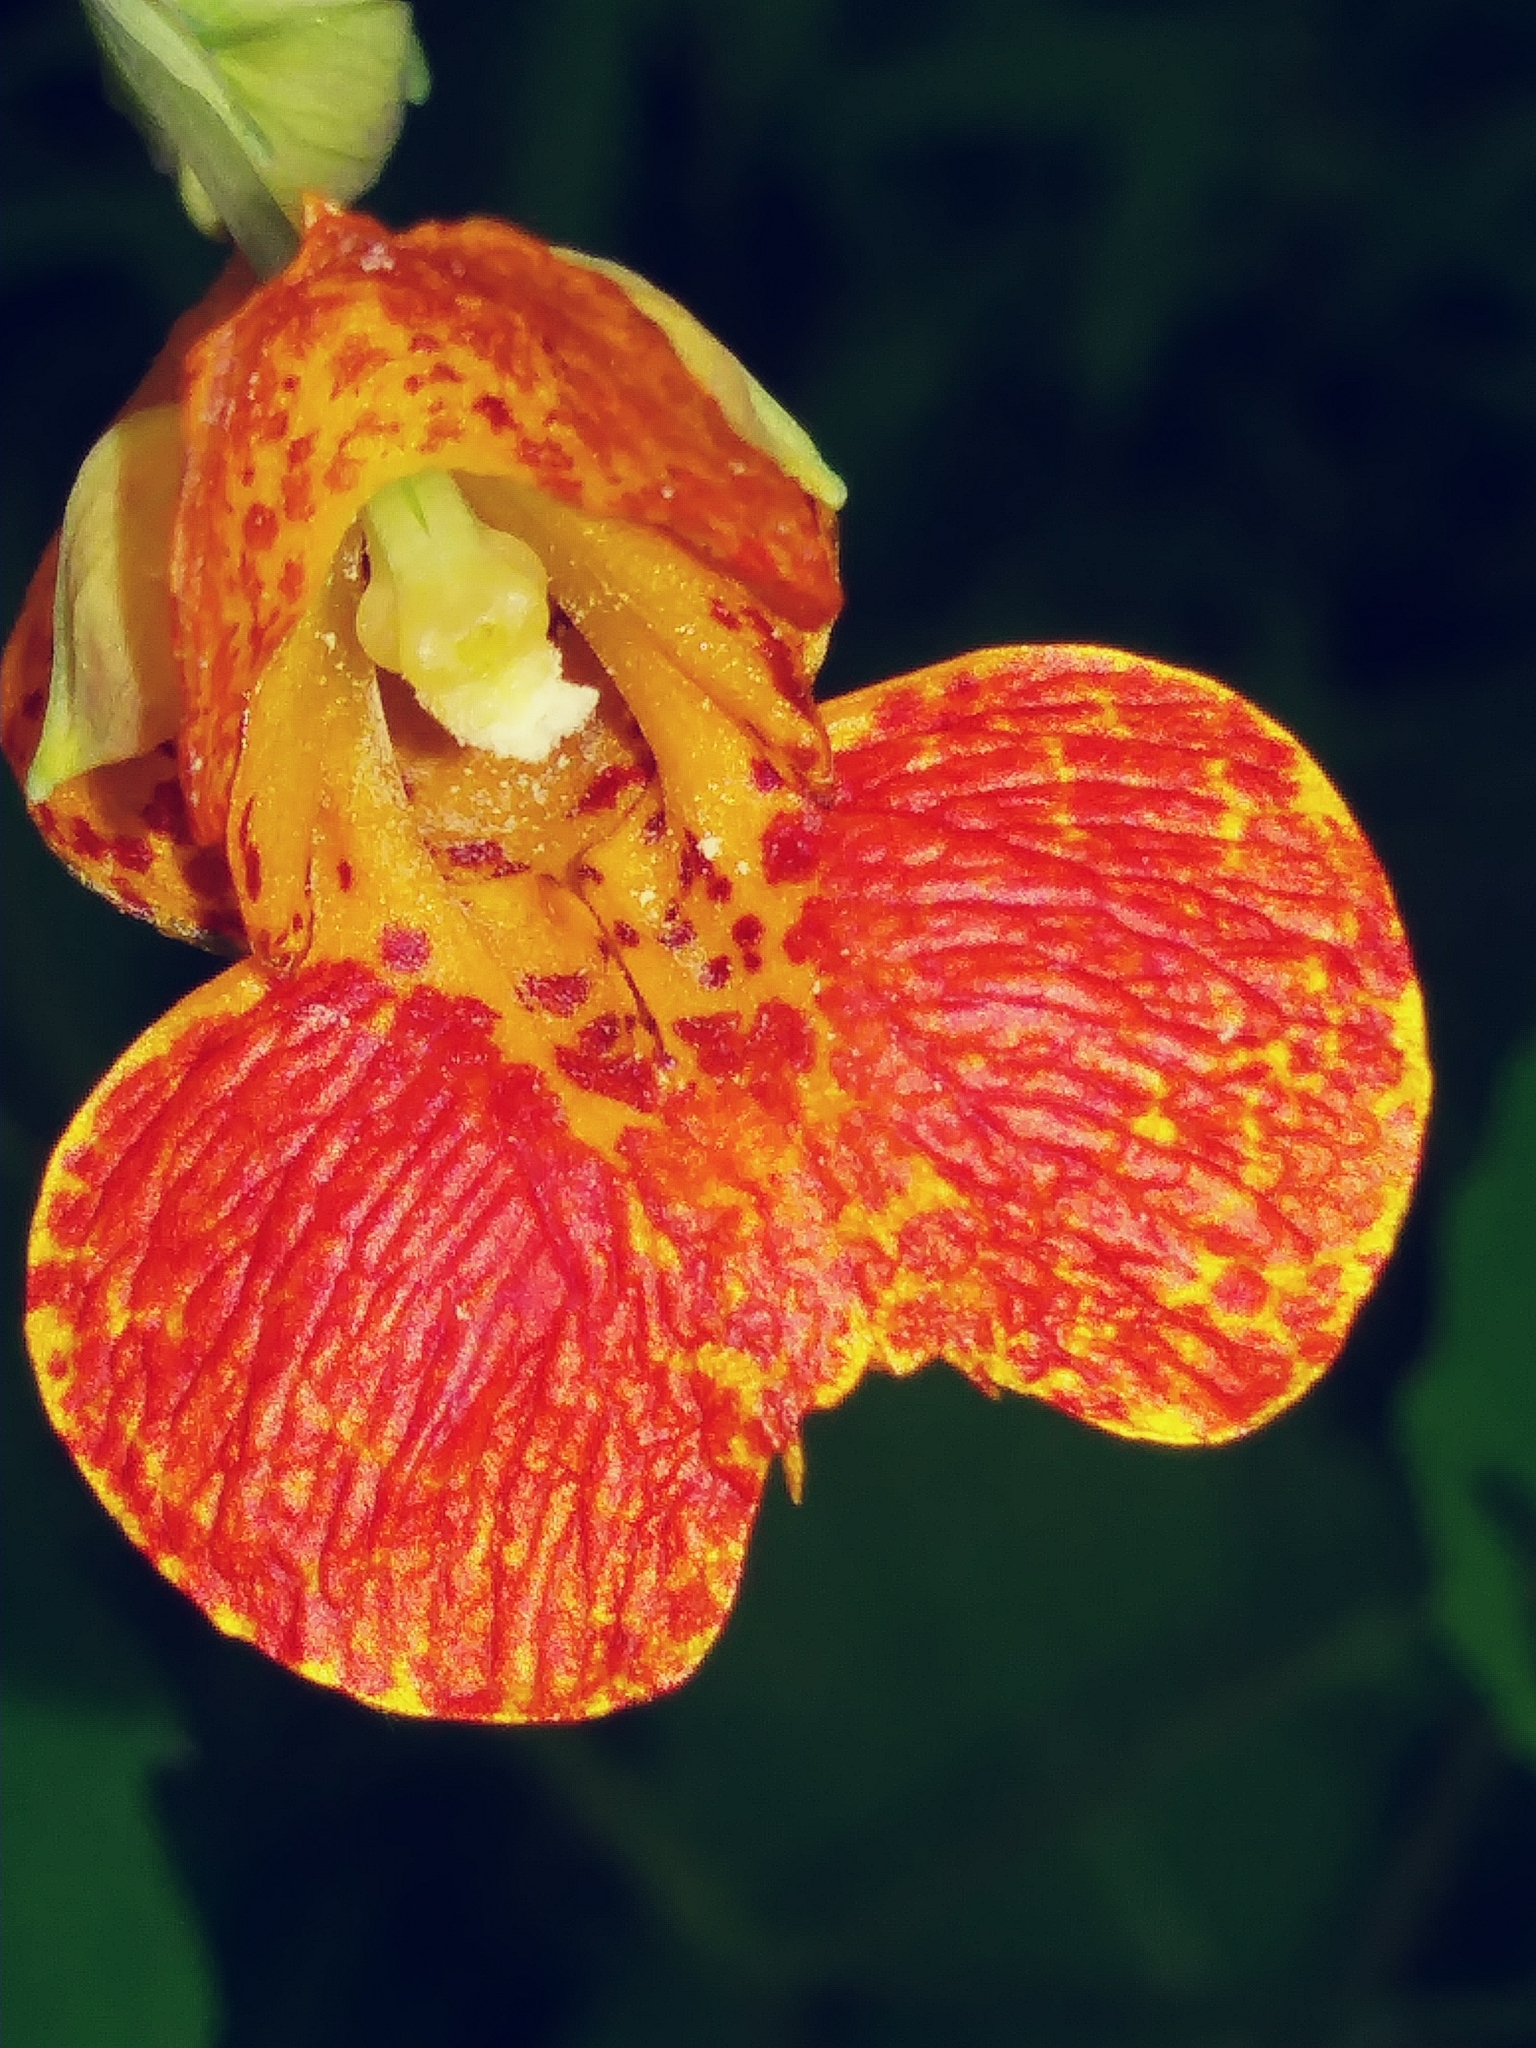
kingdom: Plantae
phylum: Tracheophyta
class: Magnoliopsida
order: Ericales
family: Balsaminaceae
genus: Impatiens
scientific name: Impatiens capensis
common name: Orange balsam
